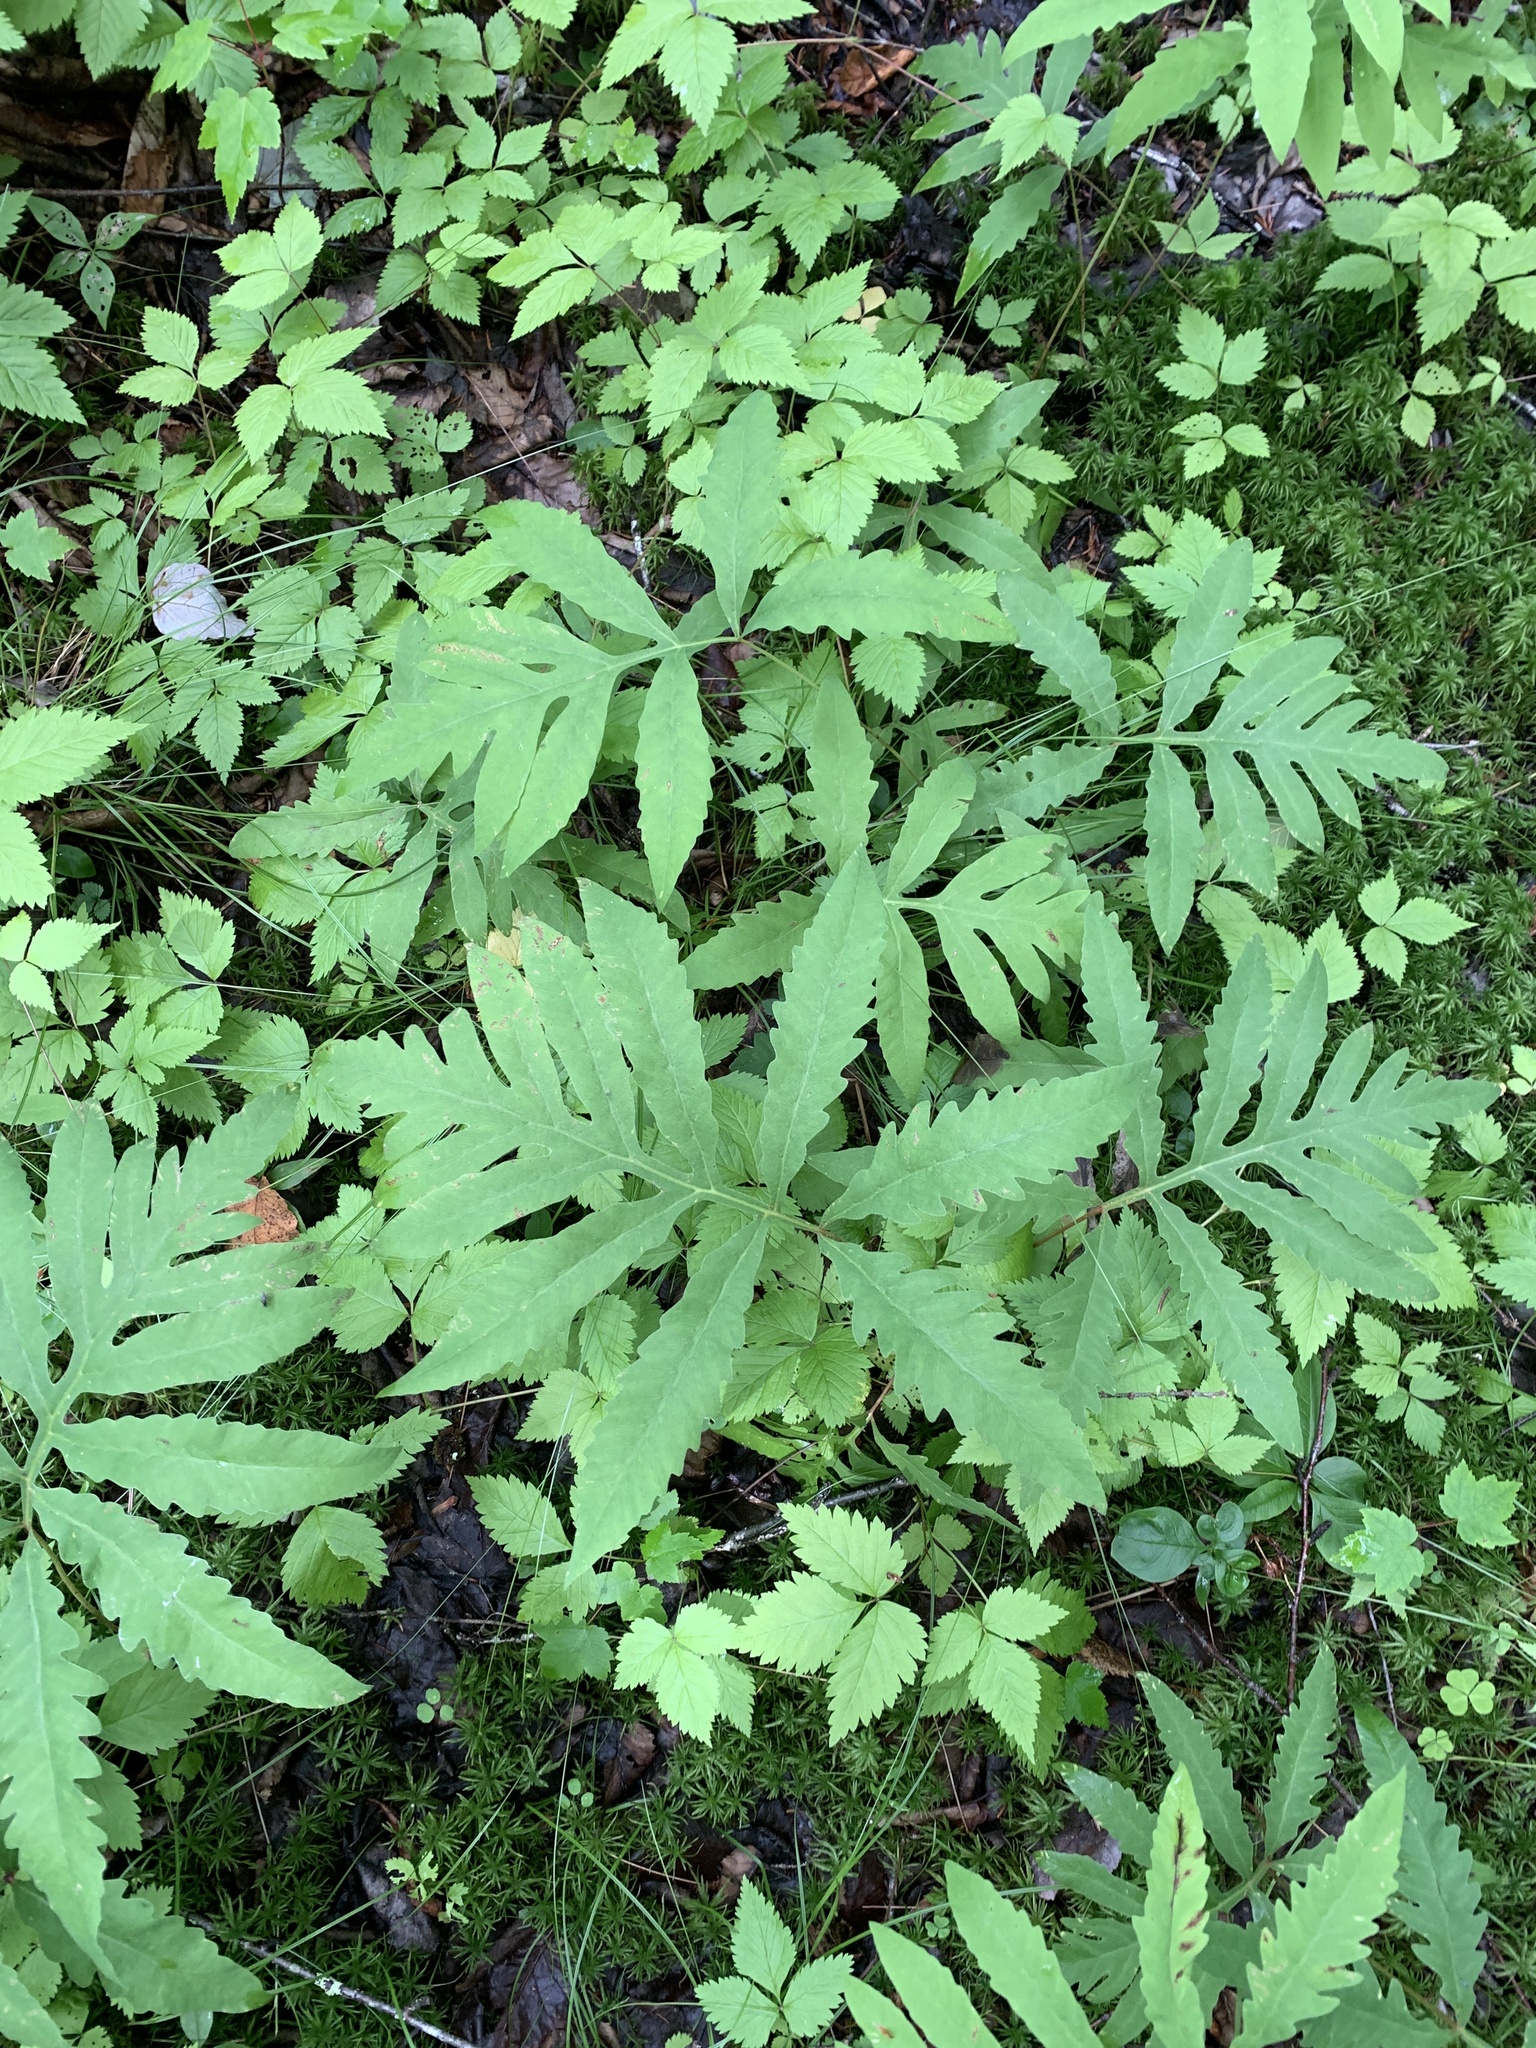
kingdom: Plantae
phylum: Tracheophyta
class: Polypodiopsida
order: Polypodiales
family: Onocleaceae
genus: Onoclea
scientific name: Onoclea sensibilis
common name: Sensitive fern
